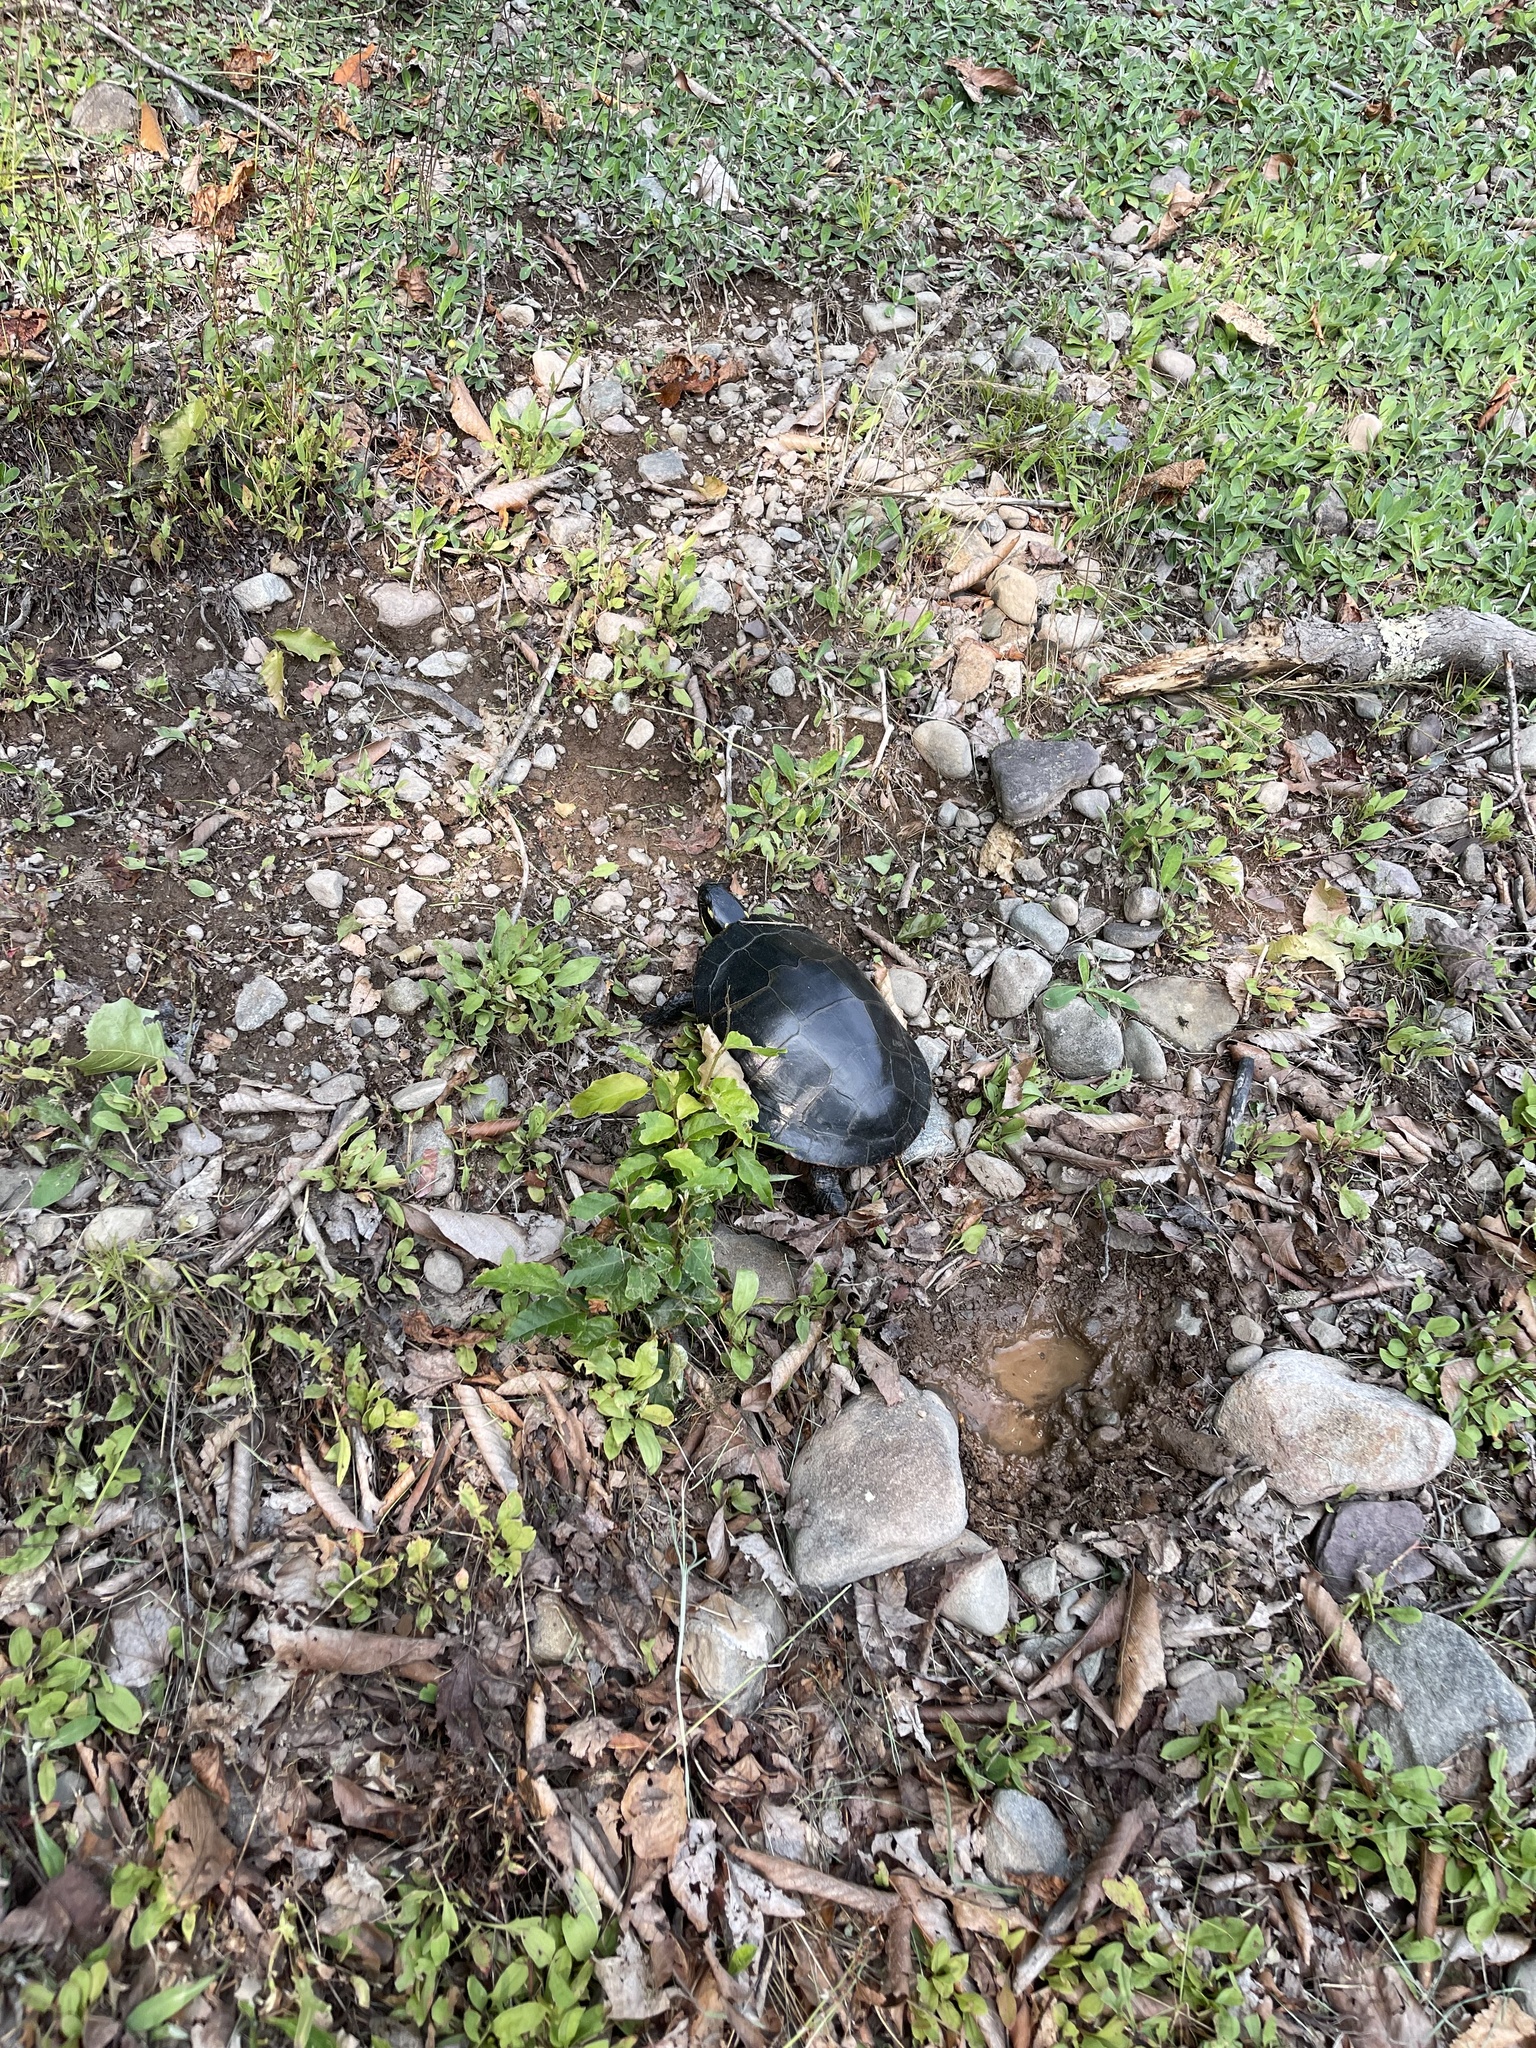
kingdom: Animalia
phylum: Chordata
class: Testudines
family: Emydidae
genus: Chrysemys
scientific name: Chrysemys picta
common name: Painted turtle
